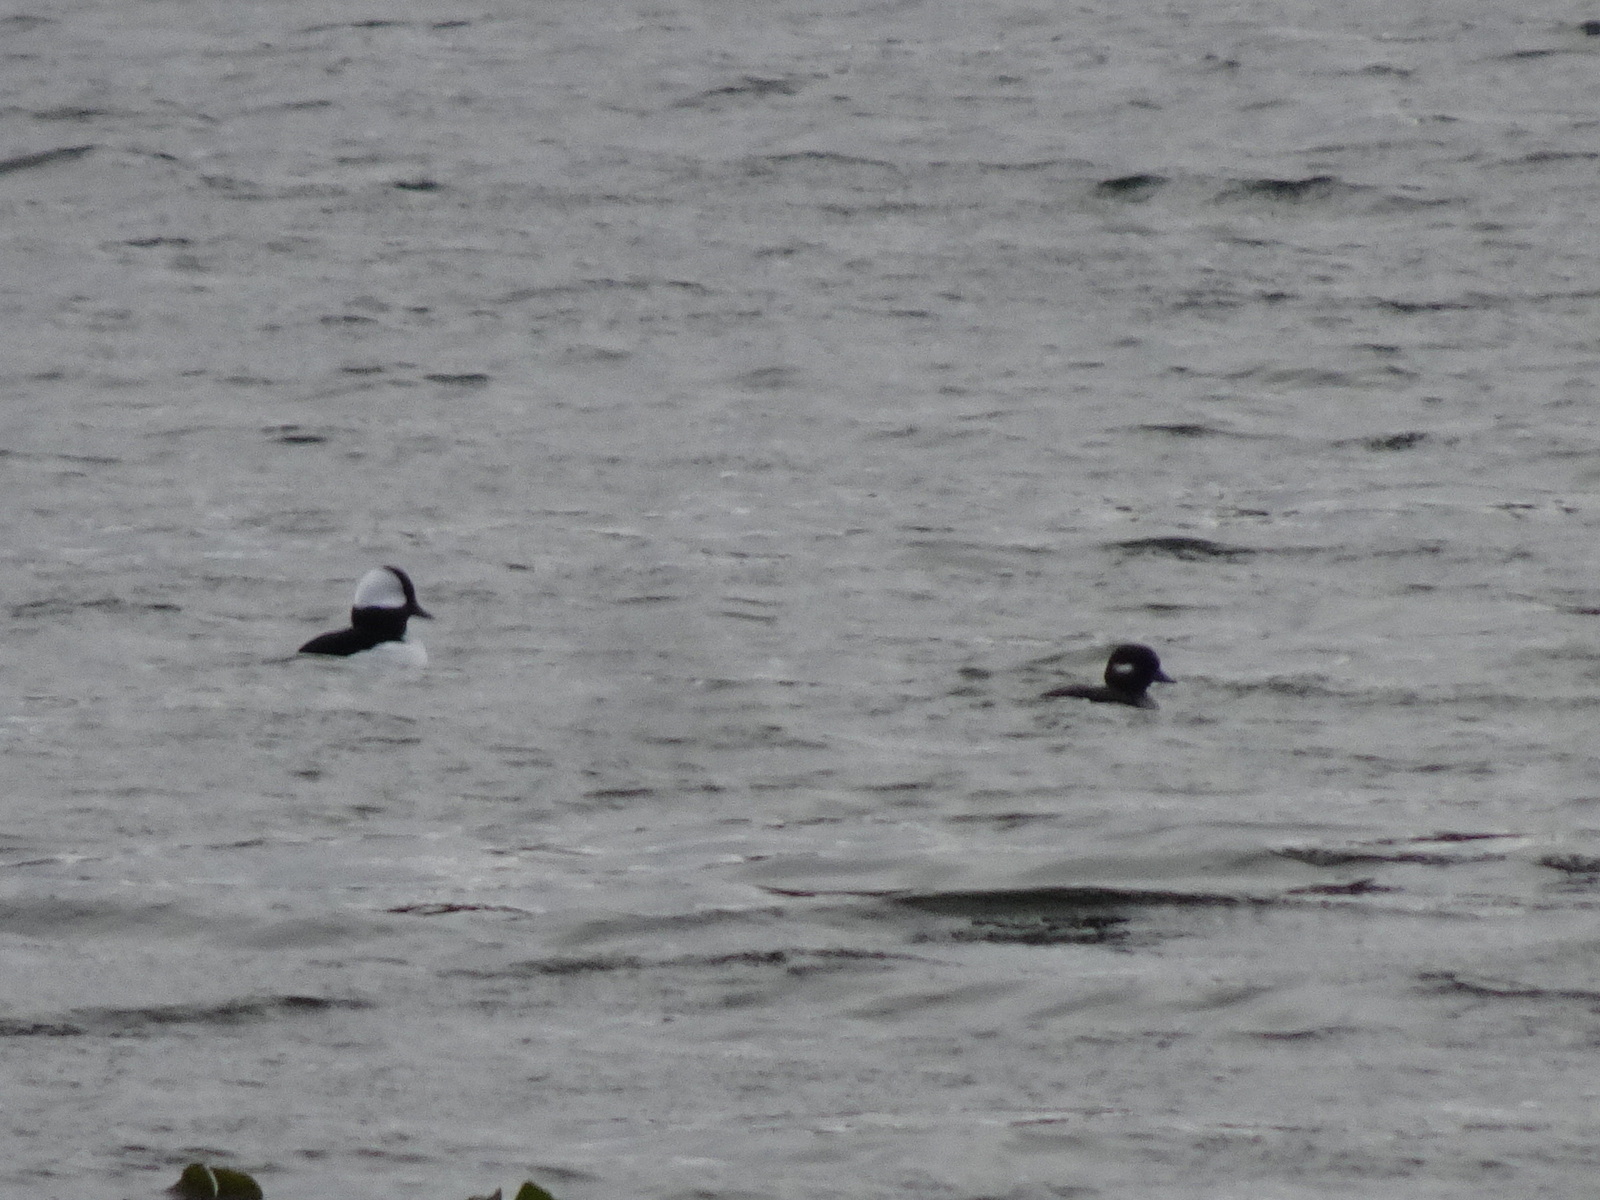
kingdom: Animalia
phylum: Chordata
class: Aves
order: Anseriformes
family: Anatidae
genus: Bucephala
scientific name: Bucephala albeola
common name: Bufflehead
